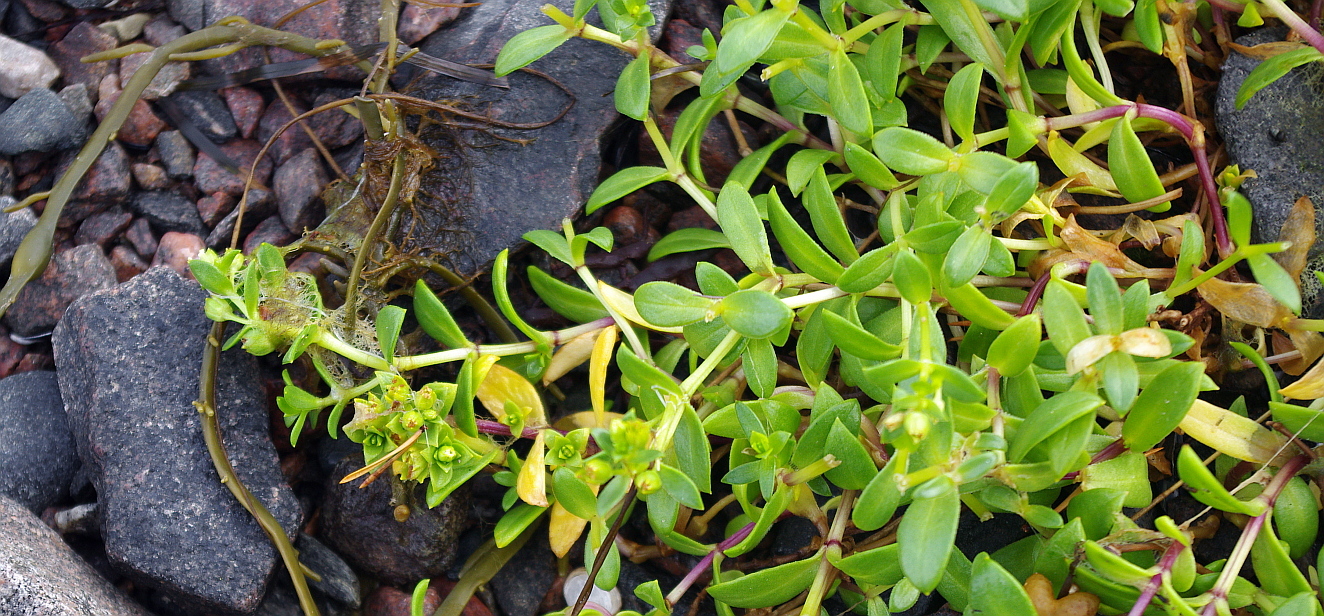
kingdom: Plantae
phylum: Tracheophyta
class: Magnoliopsida
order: Caryophyllales
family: Caryophyllaceae
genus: Honckenya
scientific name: Honckenya peploides
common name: Sea sandwort
